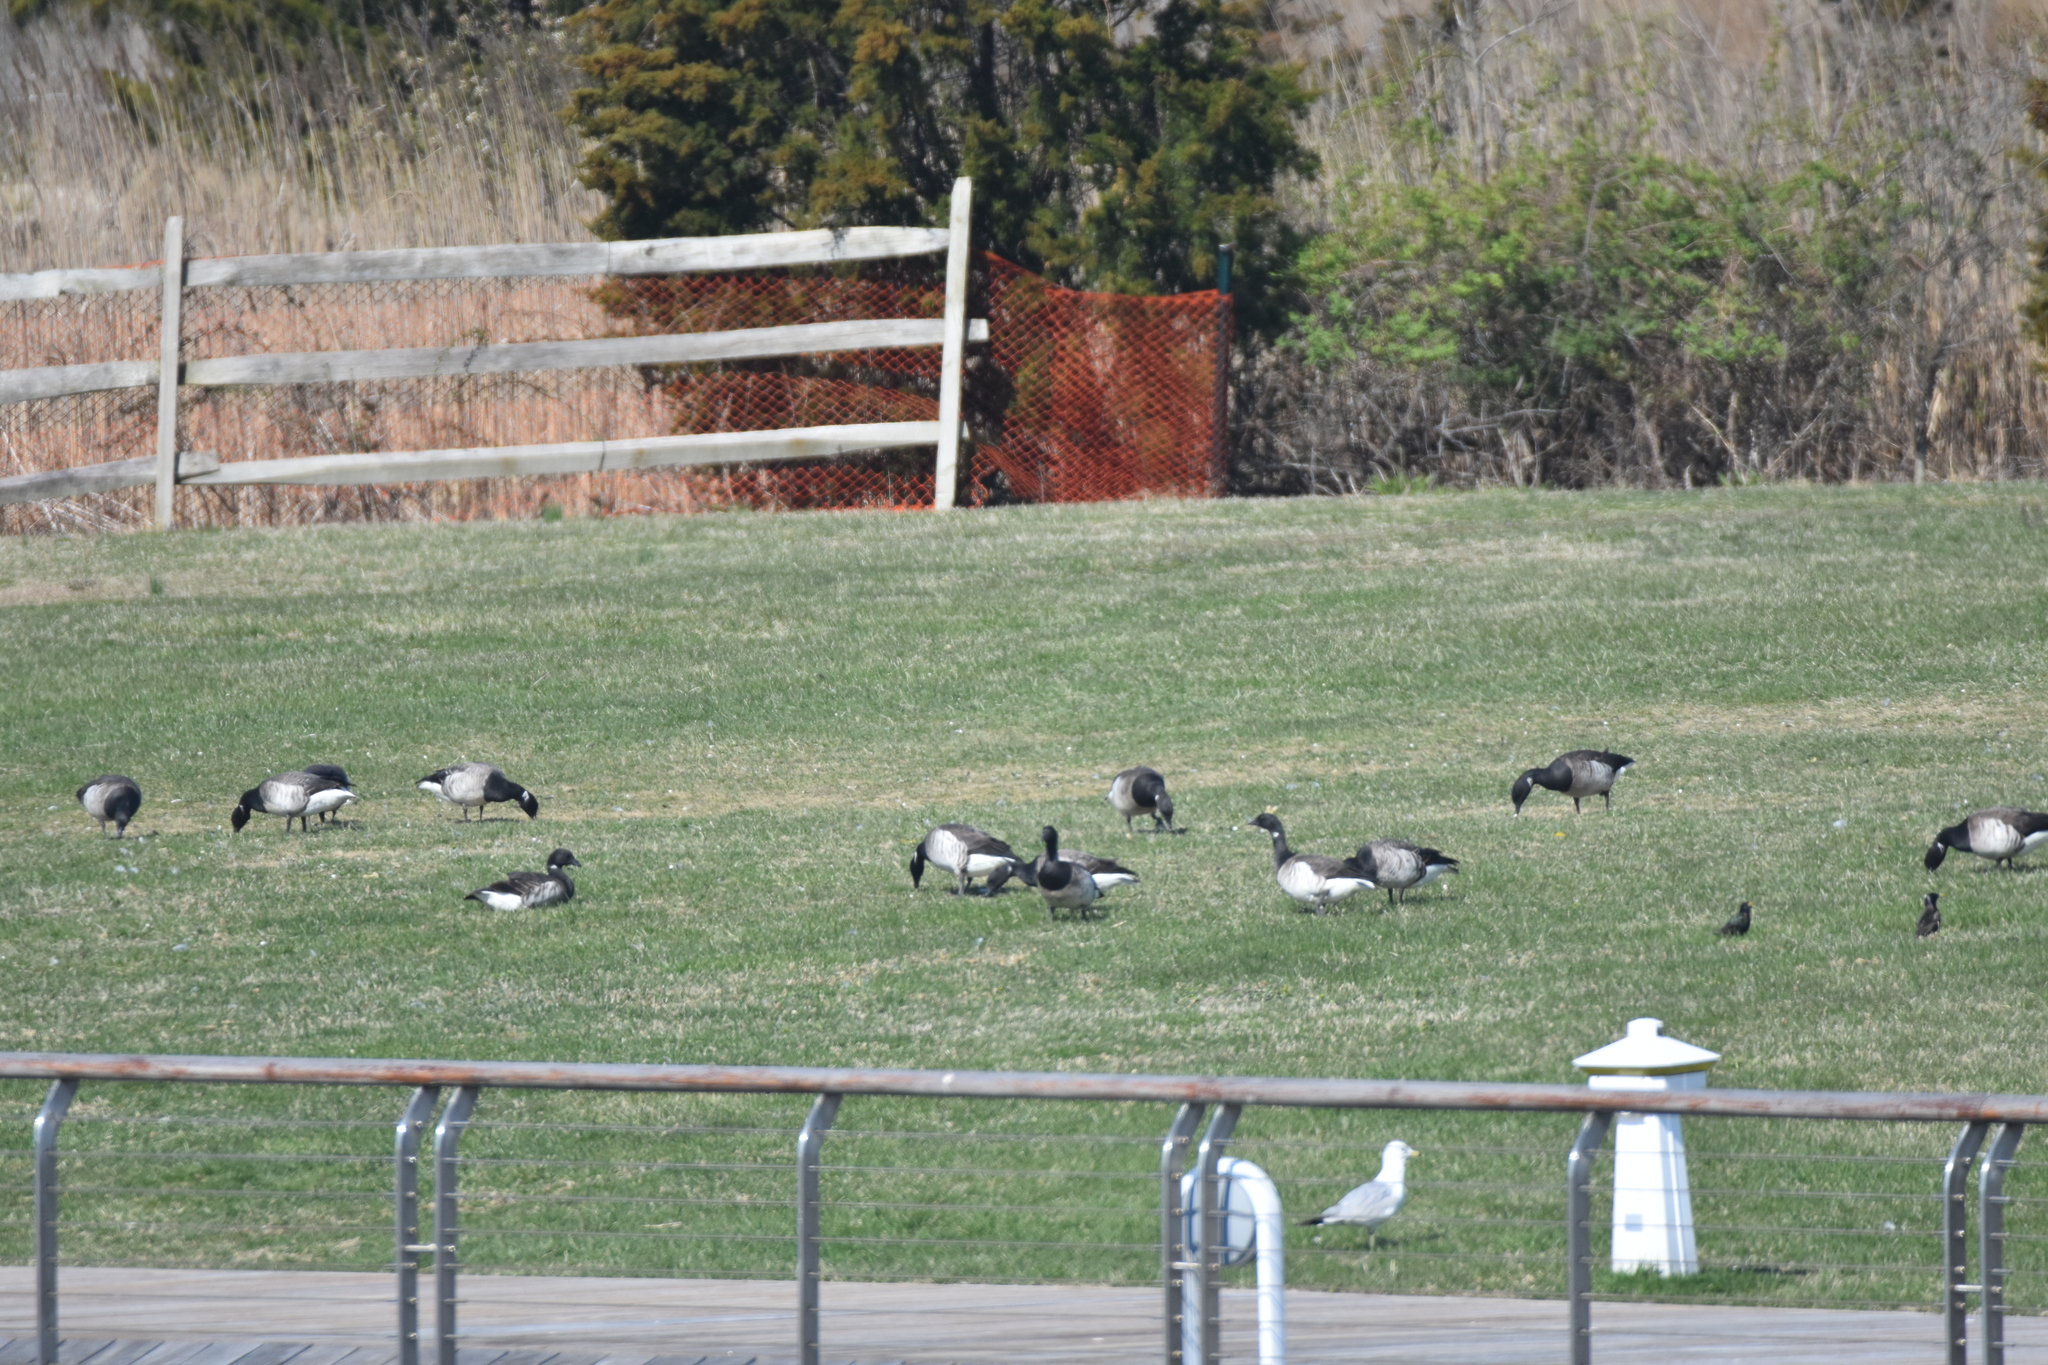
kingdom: Animalia
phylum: Chordata
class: Aves
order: Anseriformes
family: Anatidae
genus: Branta
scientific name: Branta bernicla
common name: Brant goose
